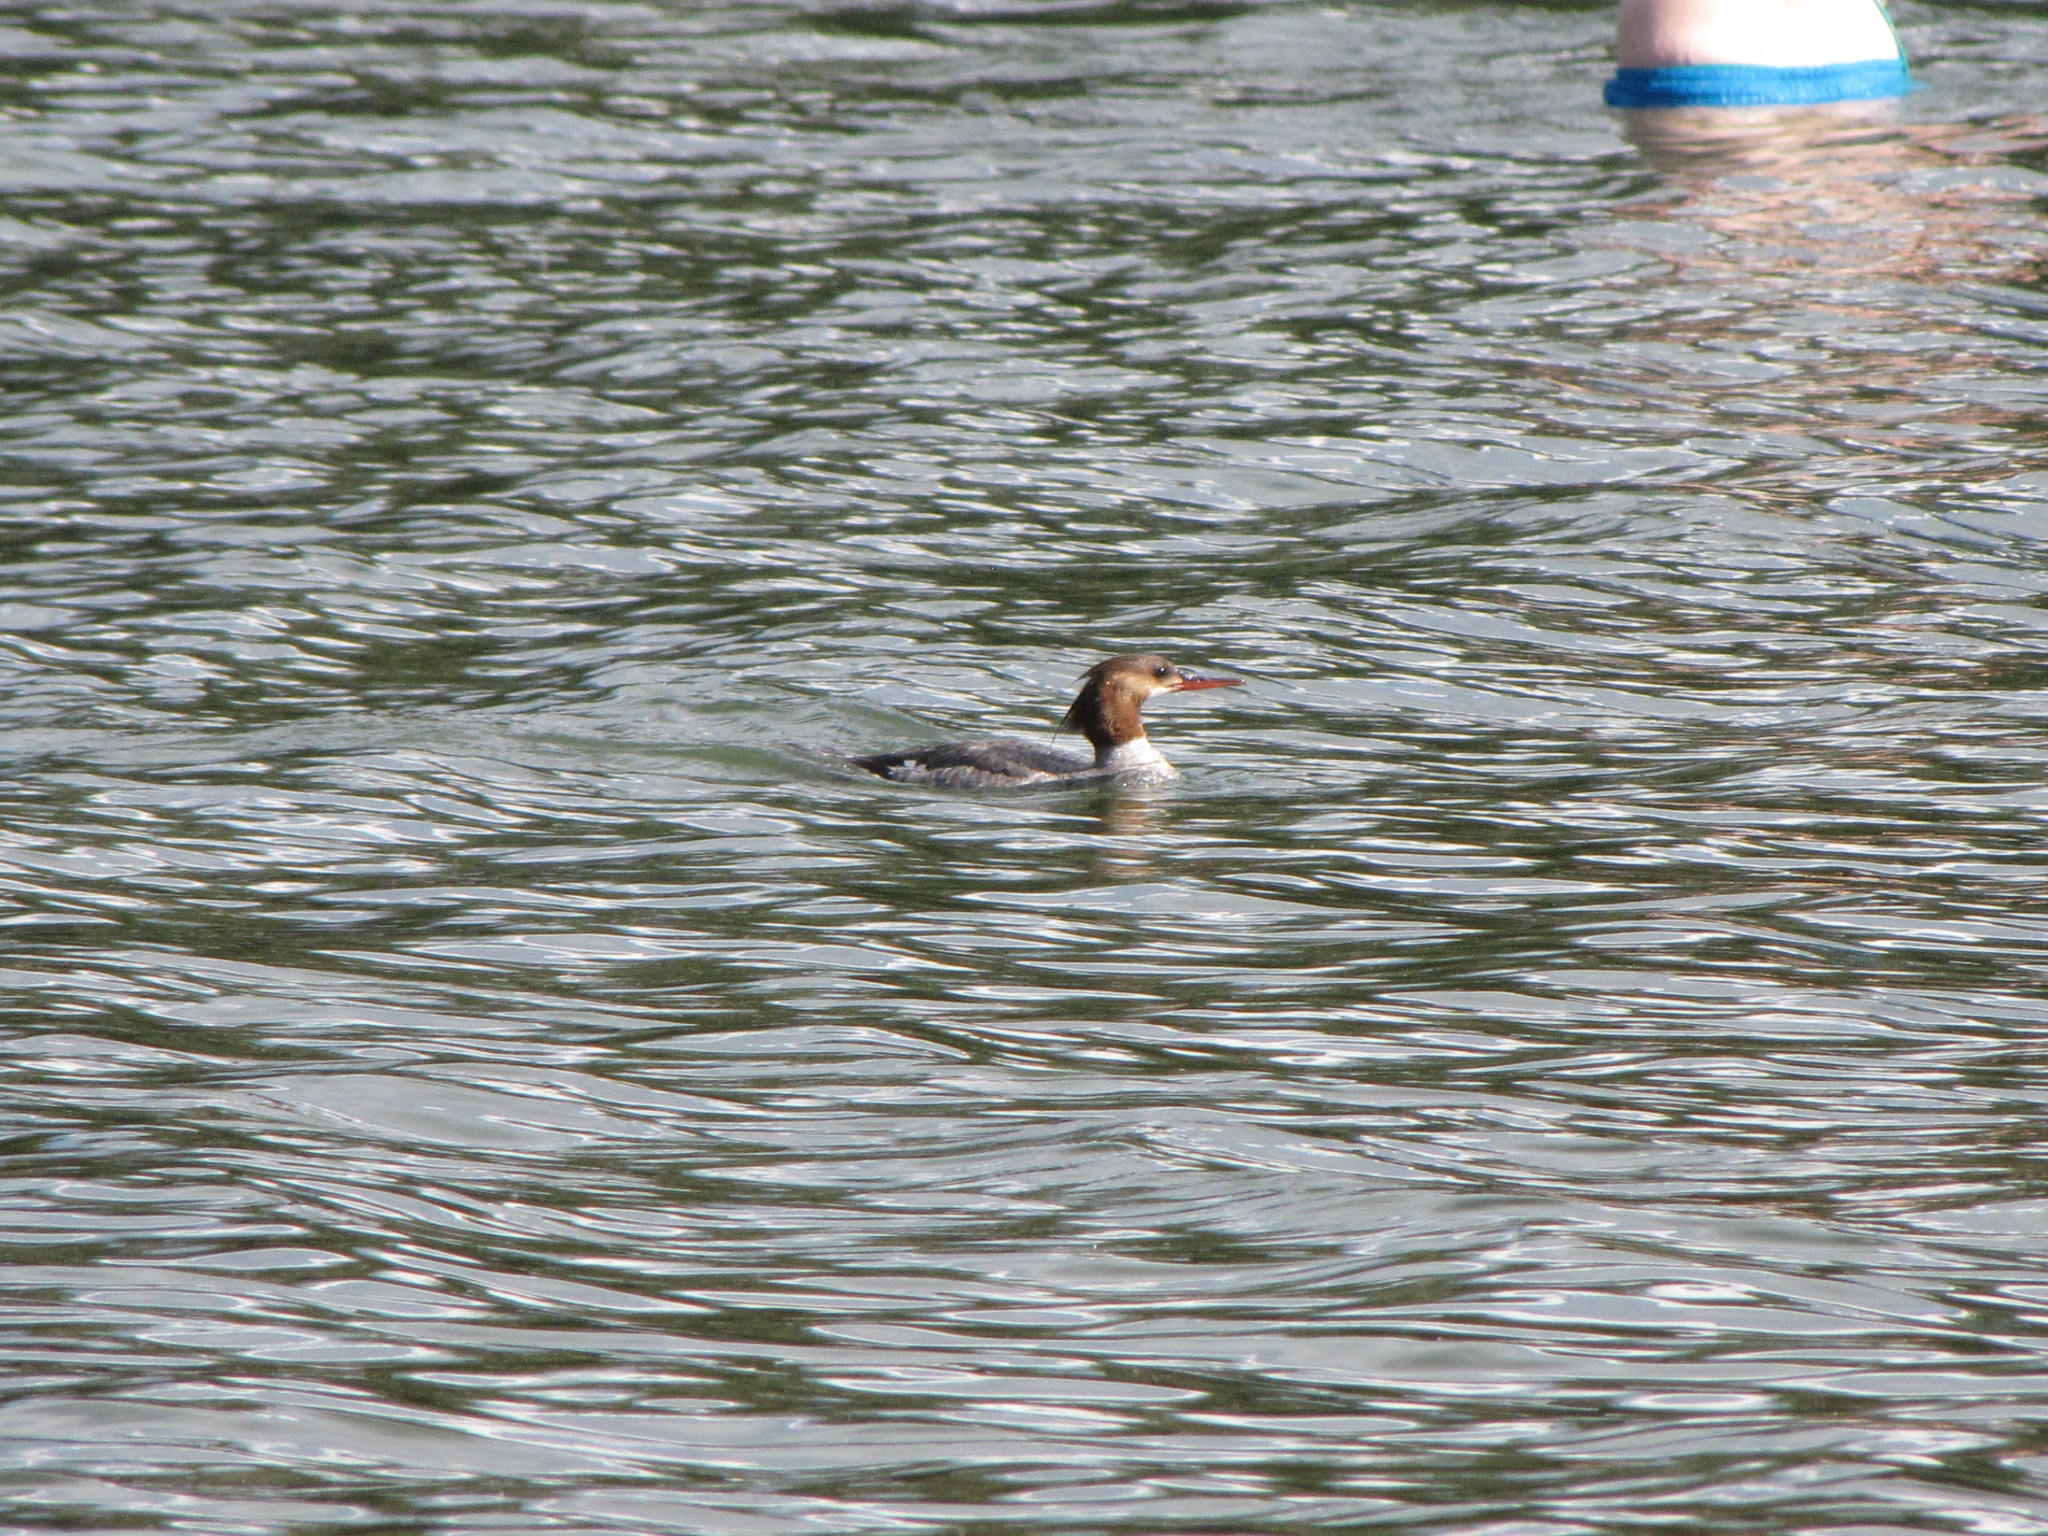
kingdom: Animalia
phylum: Chordata
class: Aves
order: Anseriformes
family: Anatidae
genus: Mergus
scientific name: Mergus merganser
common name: Common merganser
